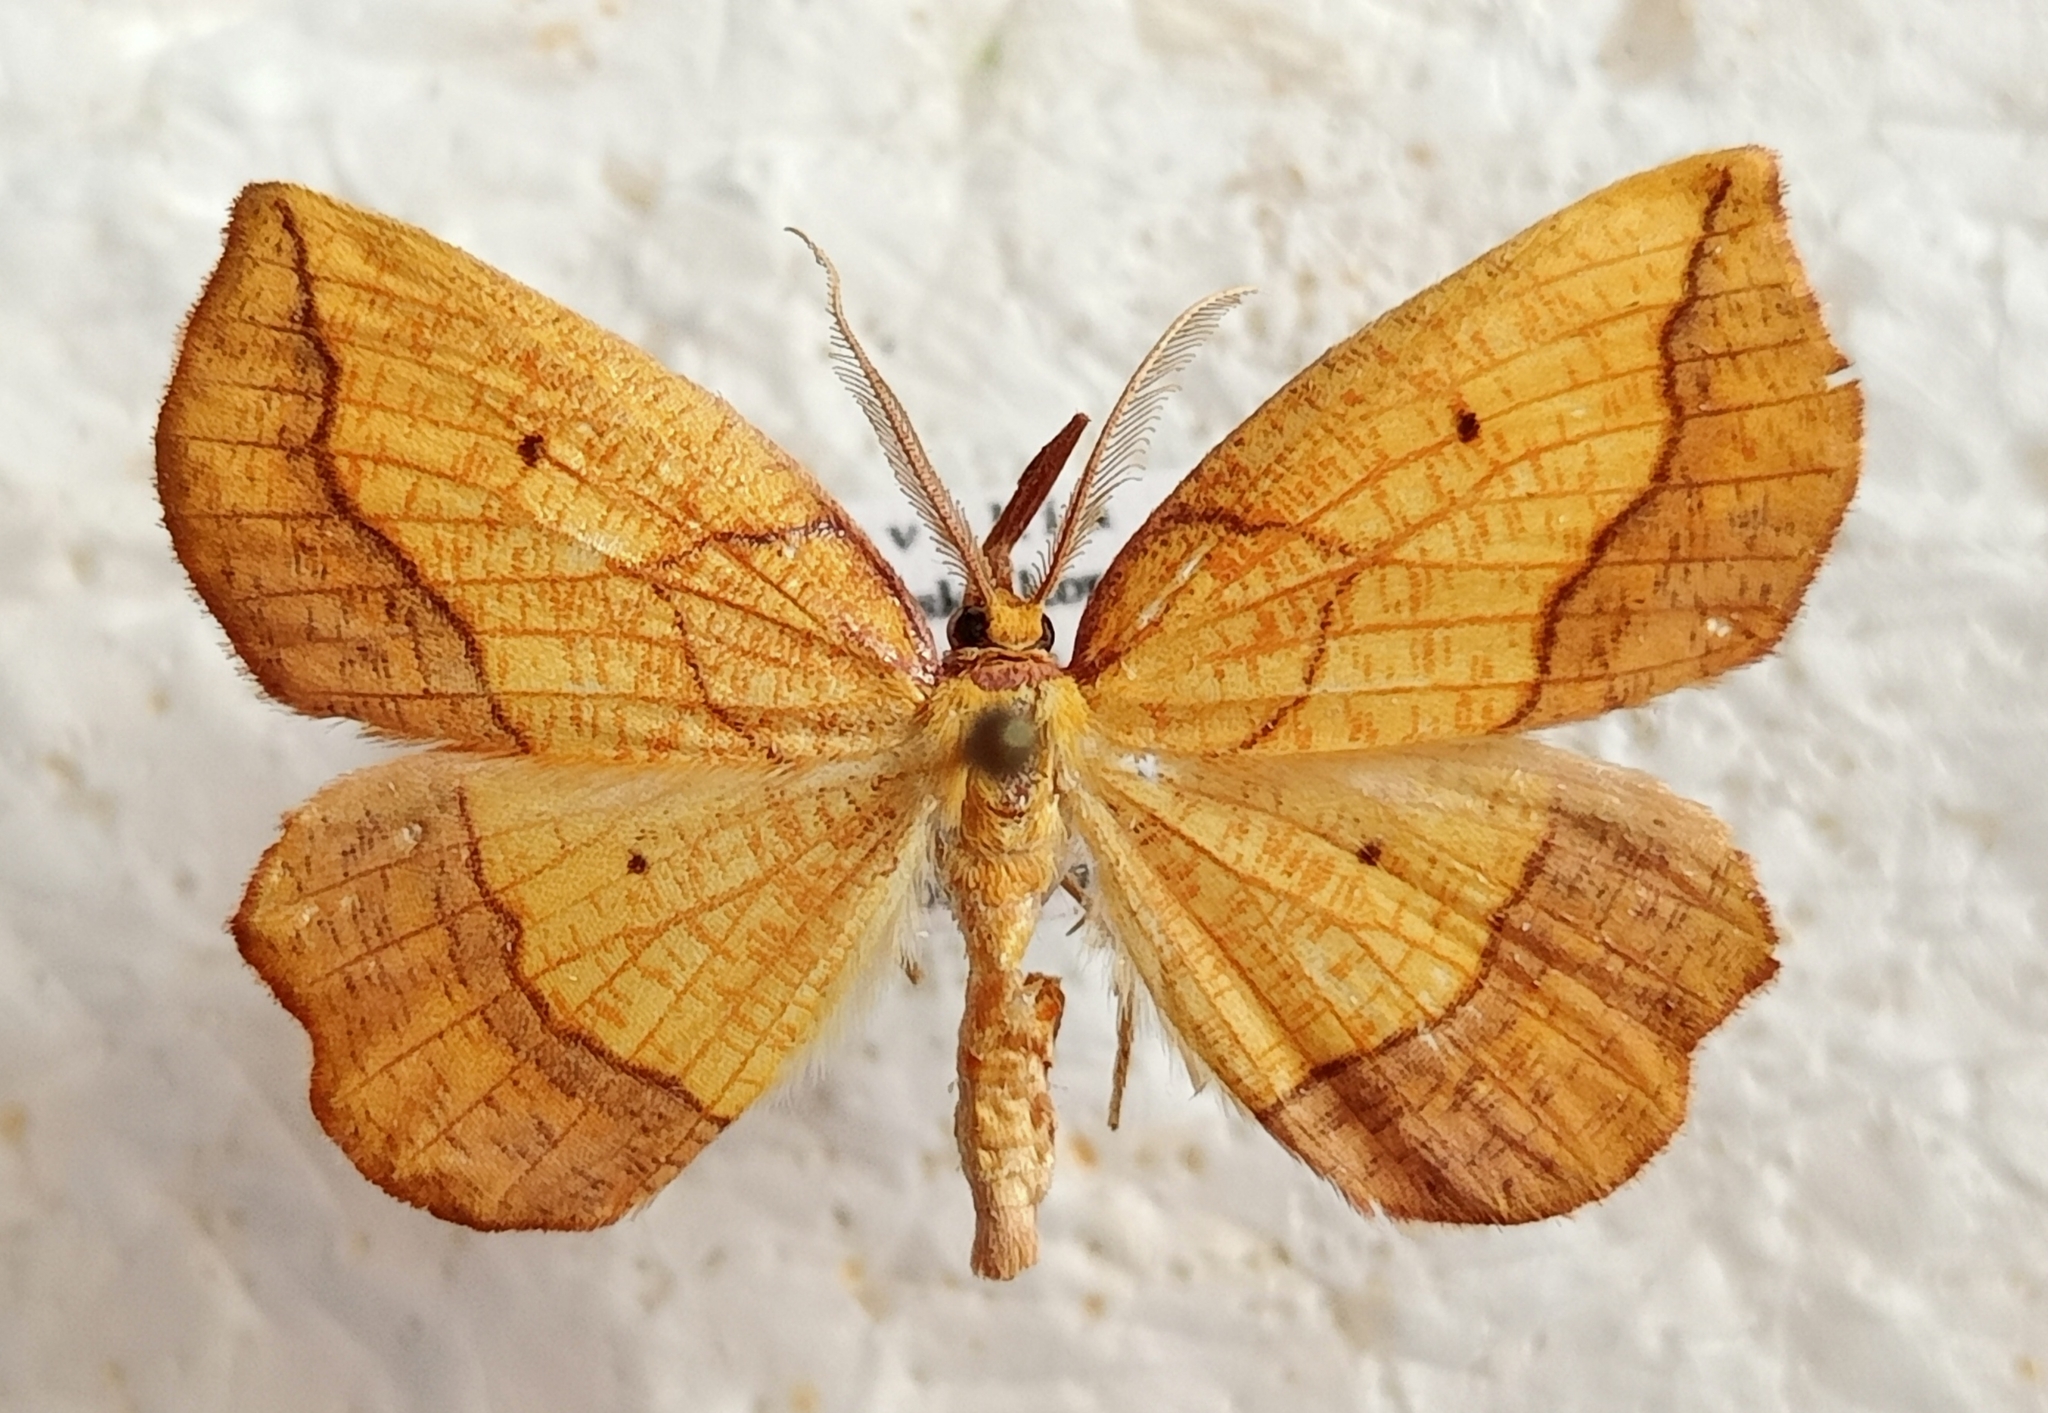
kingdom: Animalia
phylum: Arthropoda
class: Insecta
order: Lepidoptera
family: Geometridae
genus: Epione
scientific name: Epione repandaria
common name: Bordered beauty
